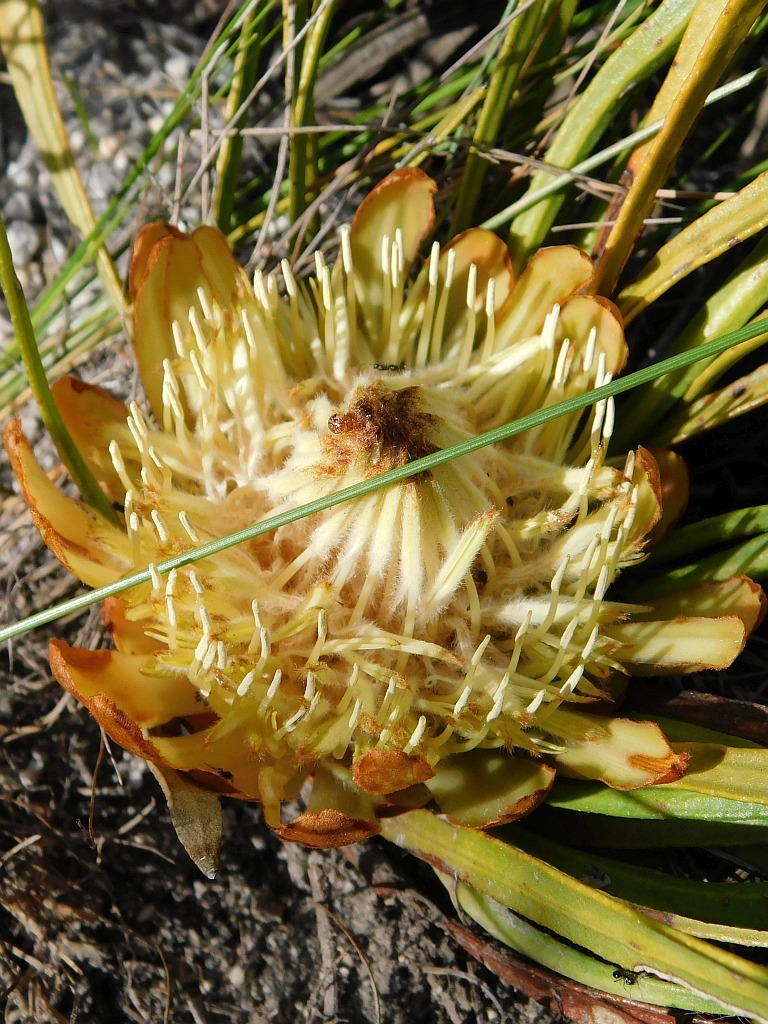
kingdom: Plantae
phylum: Tracheophyta
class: Magnoliopsida
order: Proteales
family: Proteaceae
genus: Protea
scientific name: Protea scabra
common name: Sandpaper-leaf sugarbush
